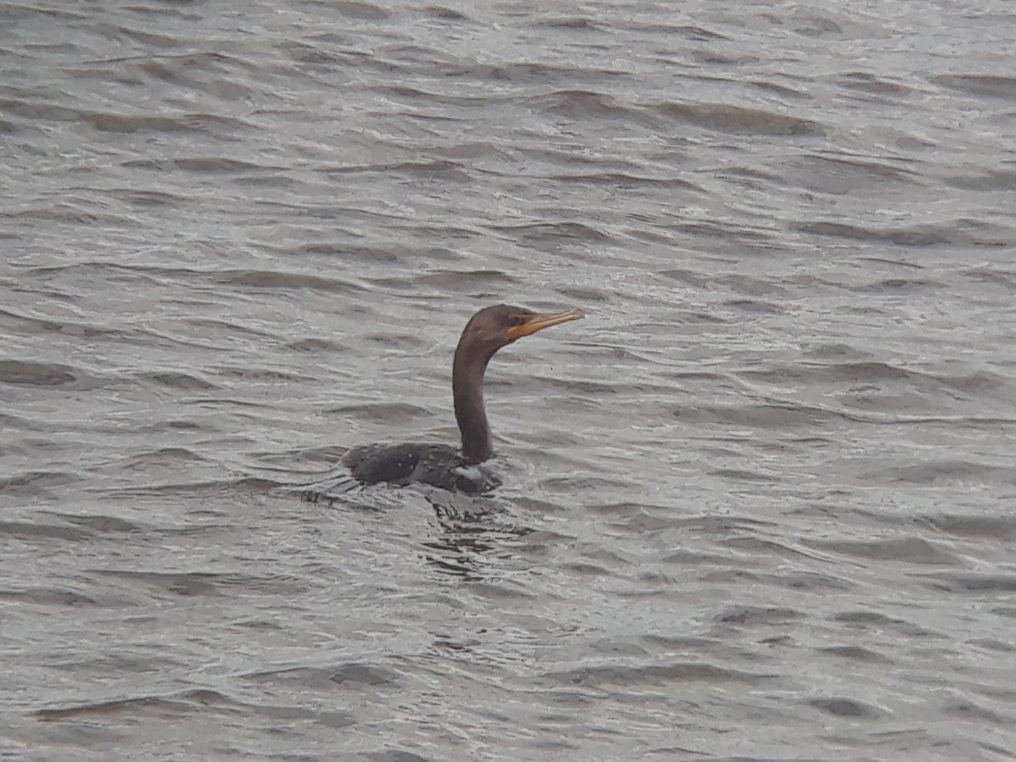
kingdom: Animalia
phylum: Chordata
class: Aves
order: Suliformes
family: Phalacrocoracidae
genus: Phalacrocorax
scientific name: Phalacrocorax auritus
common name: Double-crested cormorant
